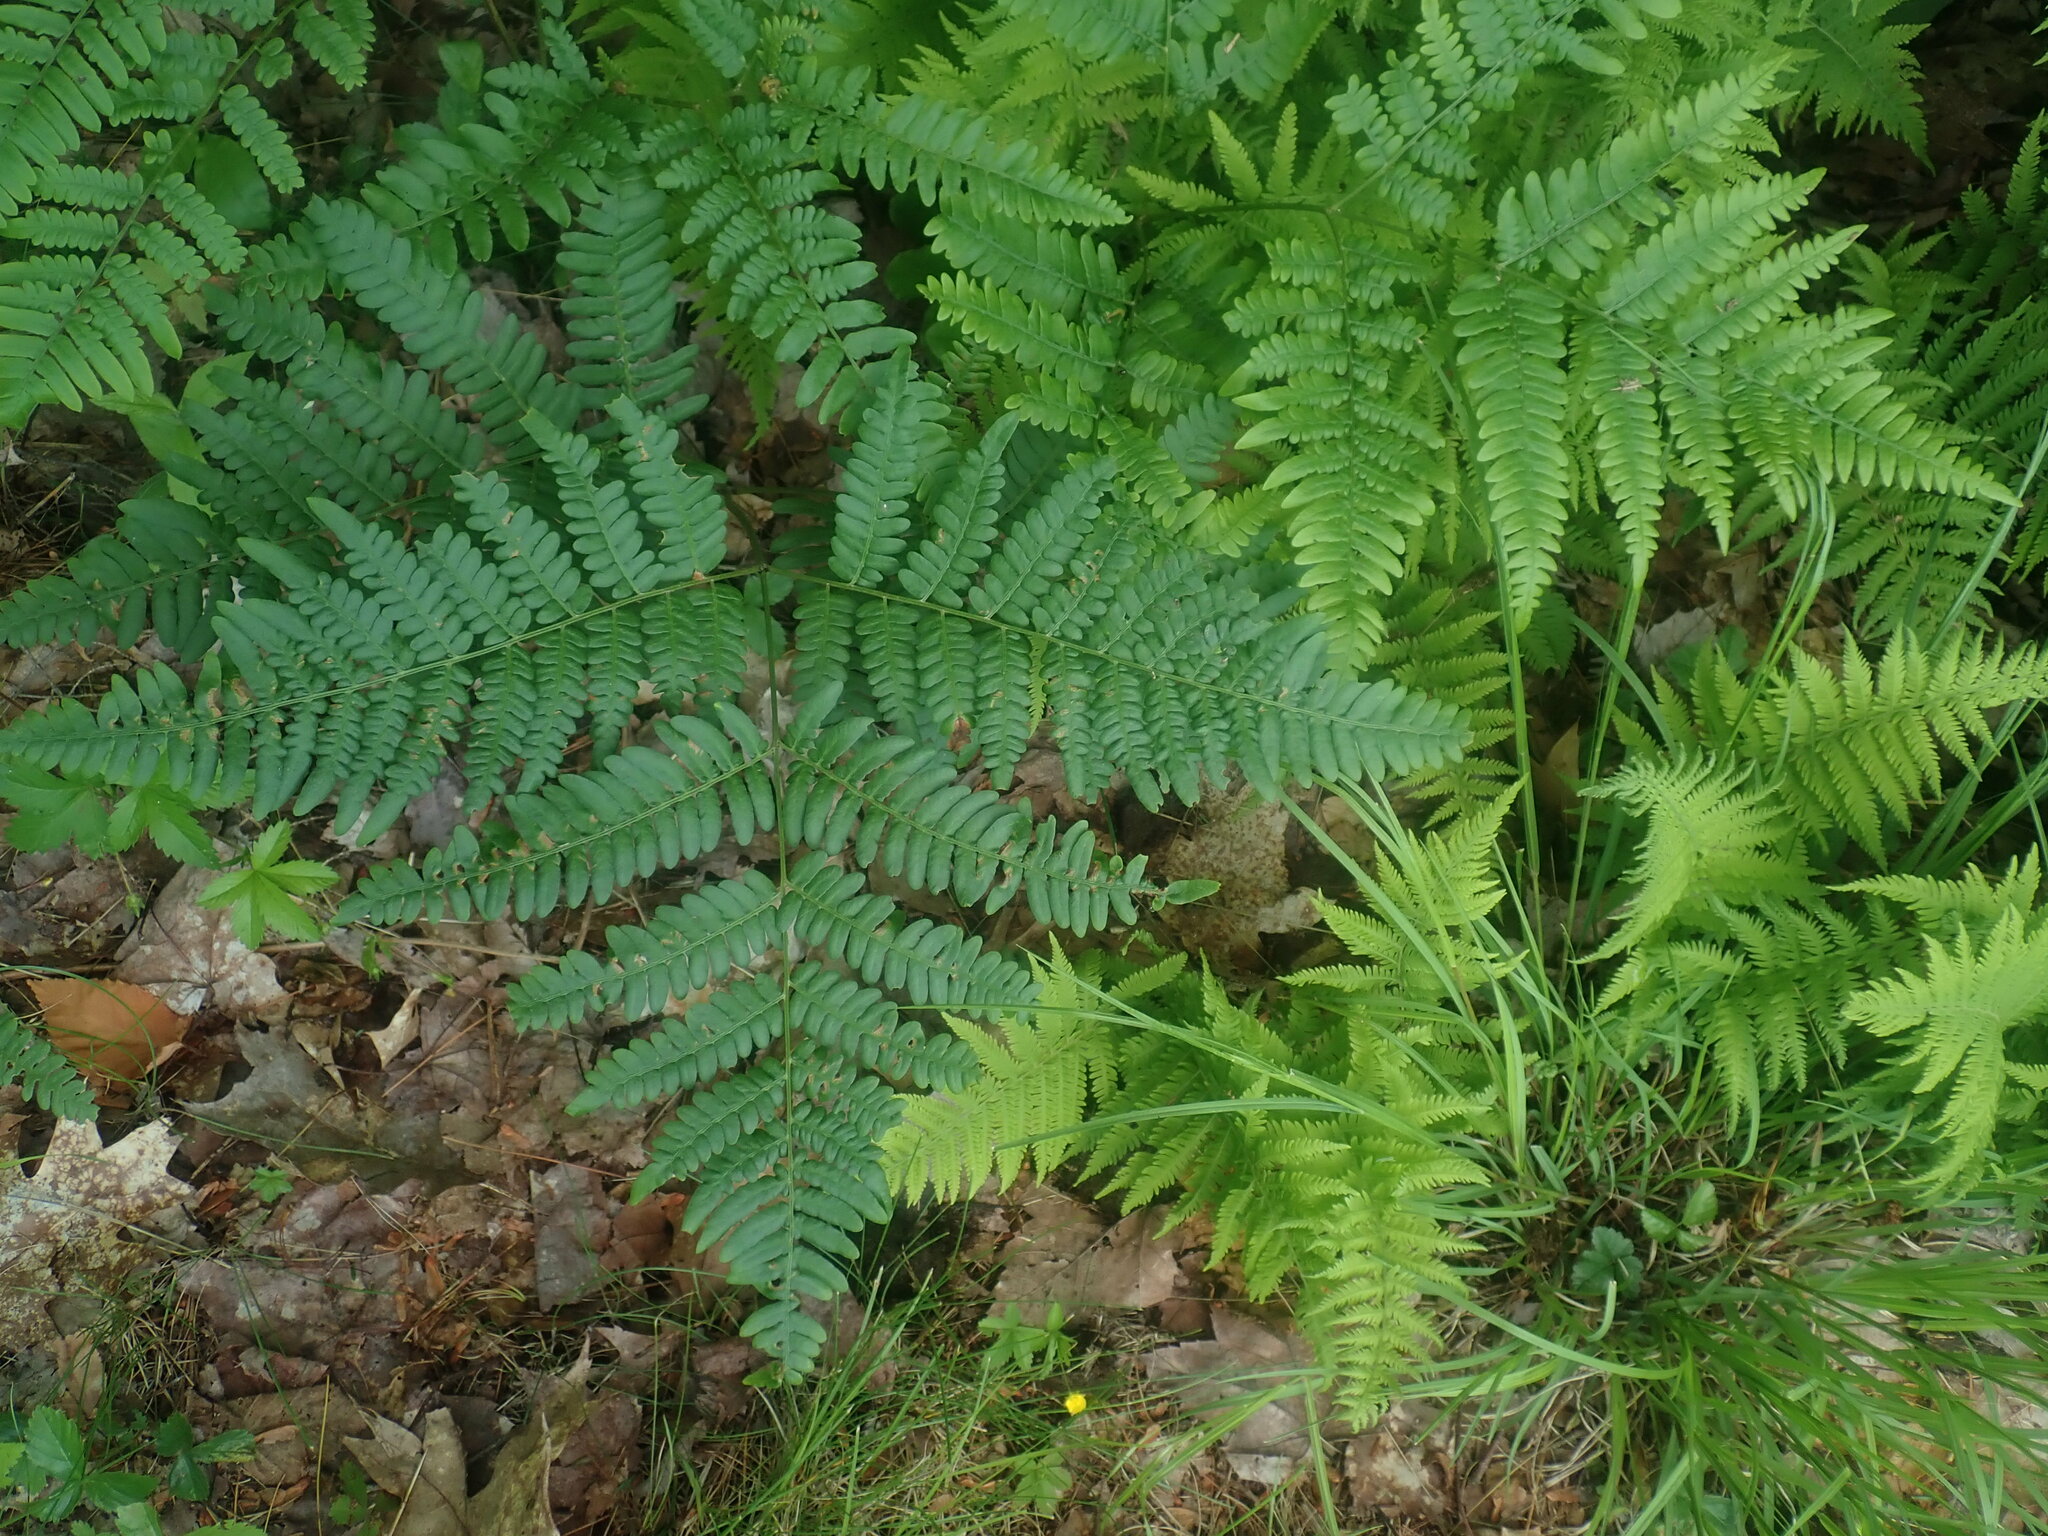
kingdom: Plantae
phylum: Tracheophyta
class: Polypodiopsida
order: Polypodiales
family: Dennstaedtiaceae
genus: Pteridium
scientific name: Pteridium aquilinum
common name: Bracken
